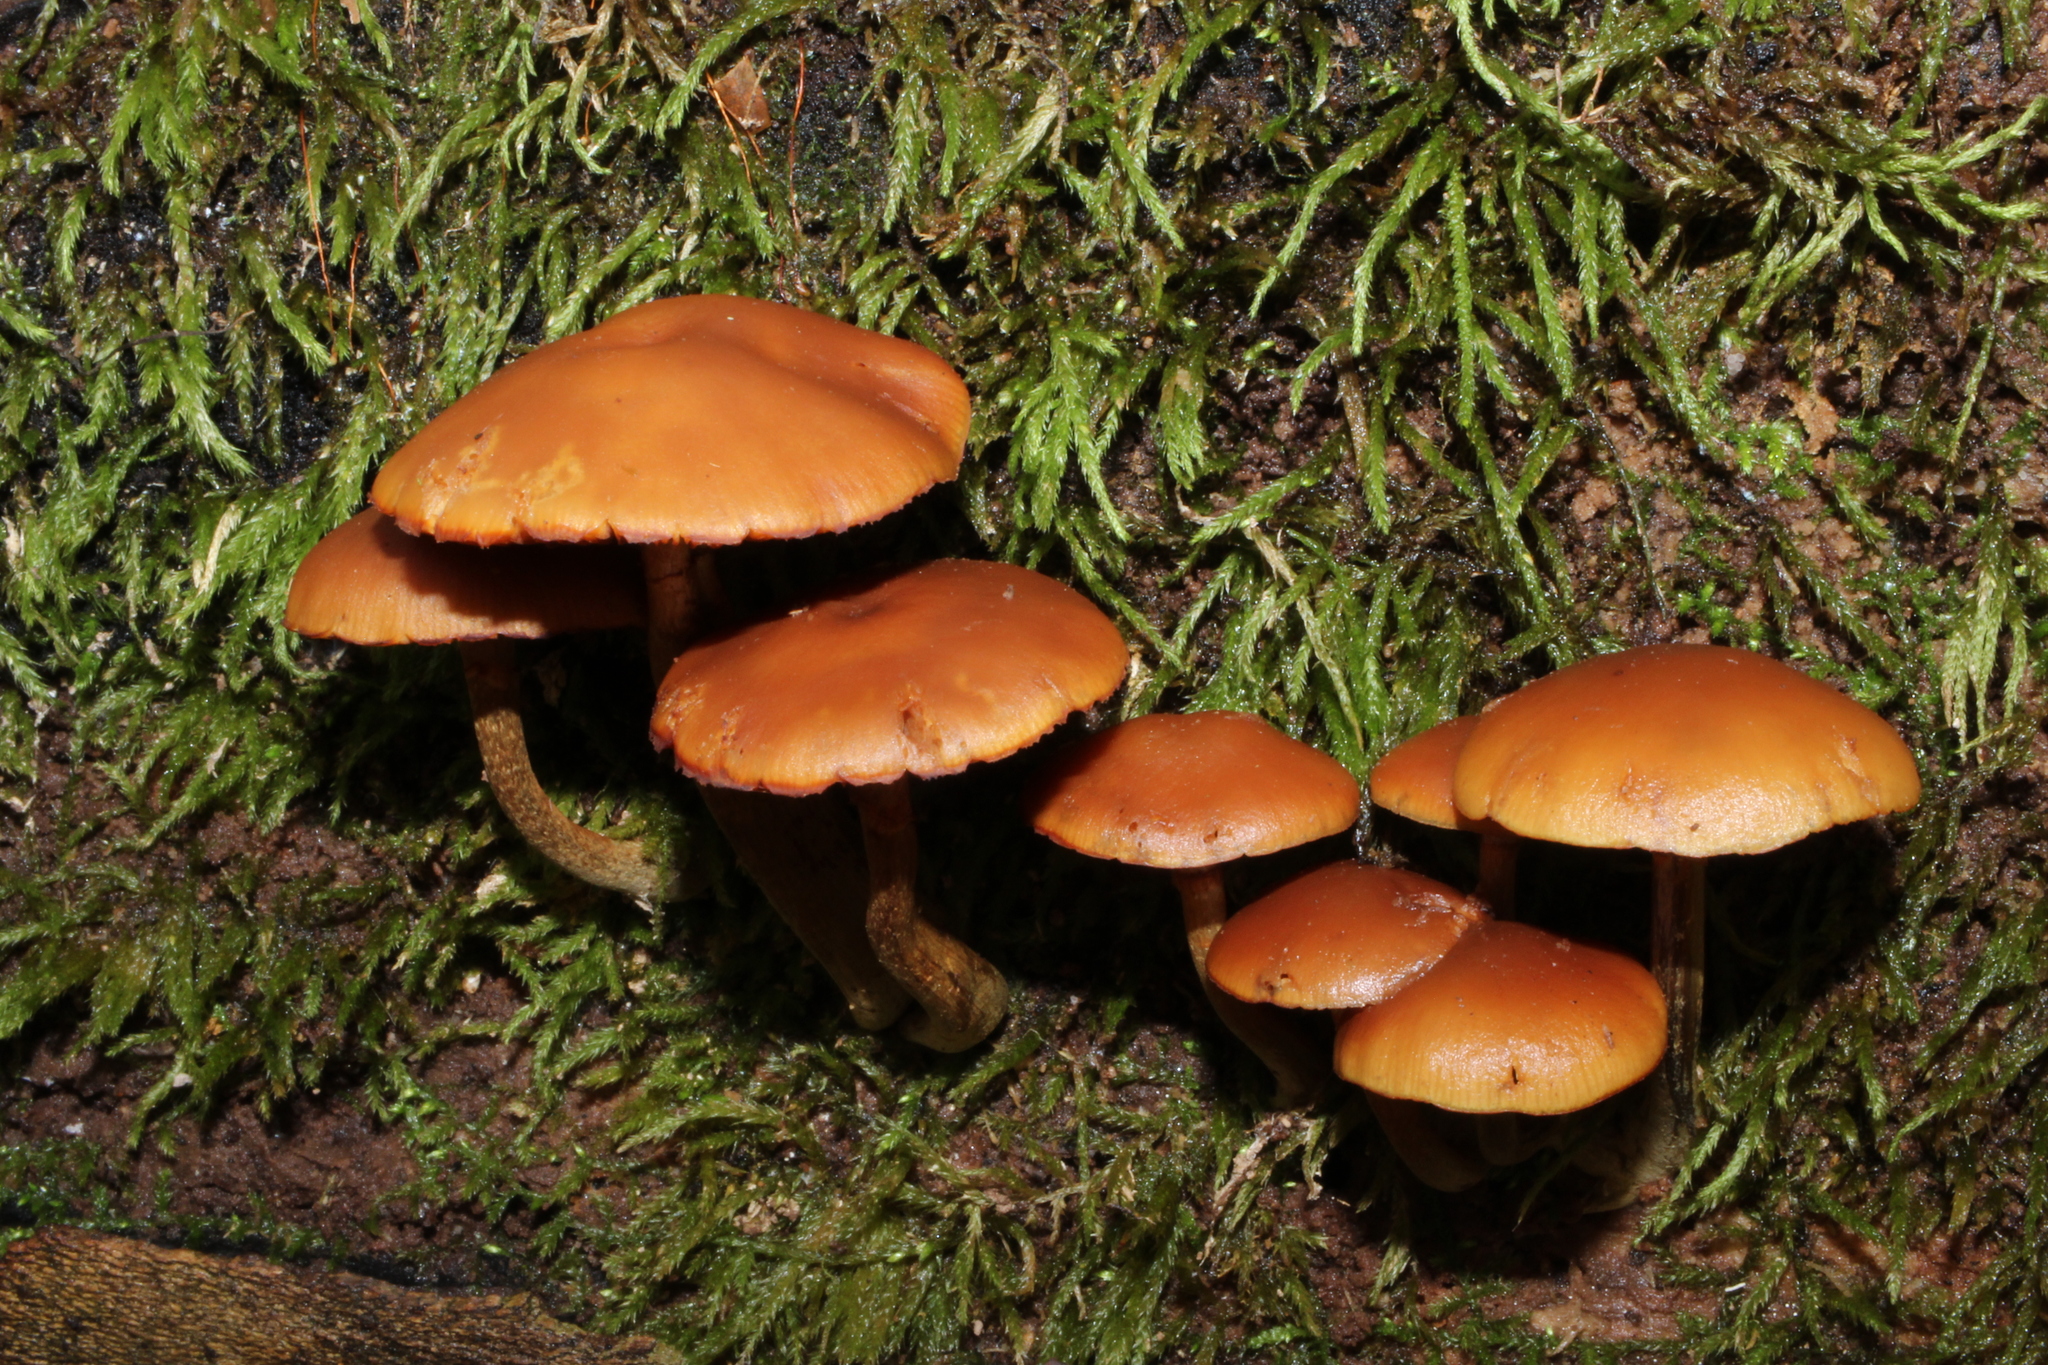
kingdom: Fungi
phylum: Basidiomycota
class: Agaricomycetes
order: Agaricales
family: Hymenogastraceae
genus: Galerina
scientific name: Galerina marginata
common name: Funeral bell
